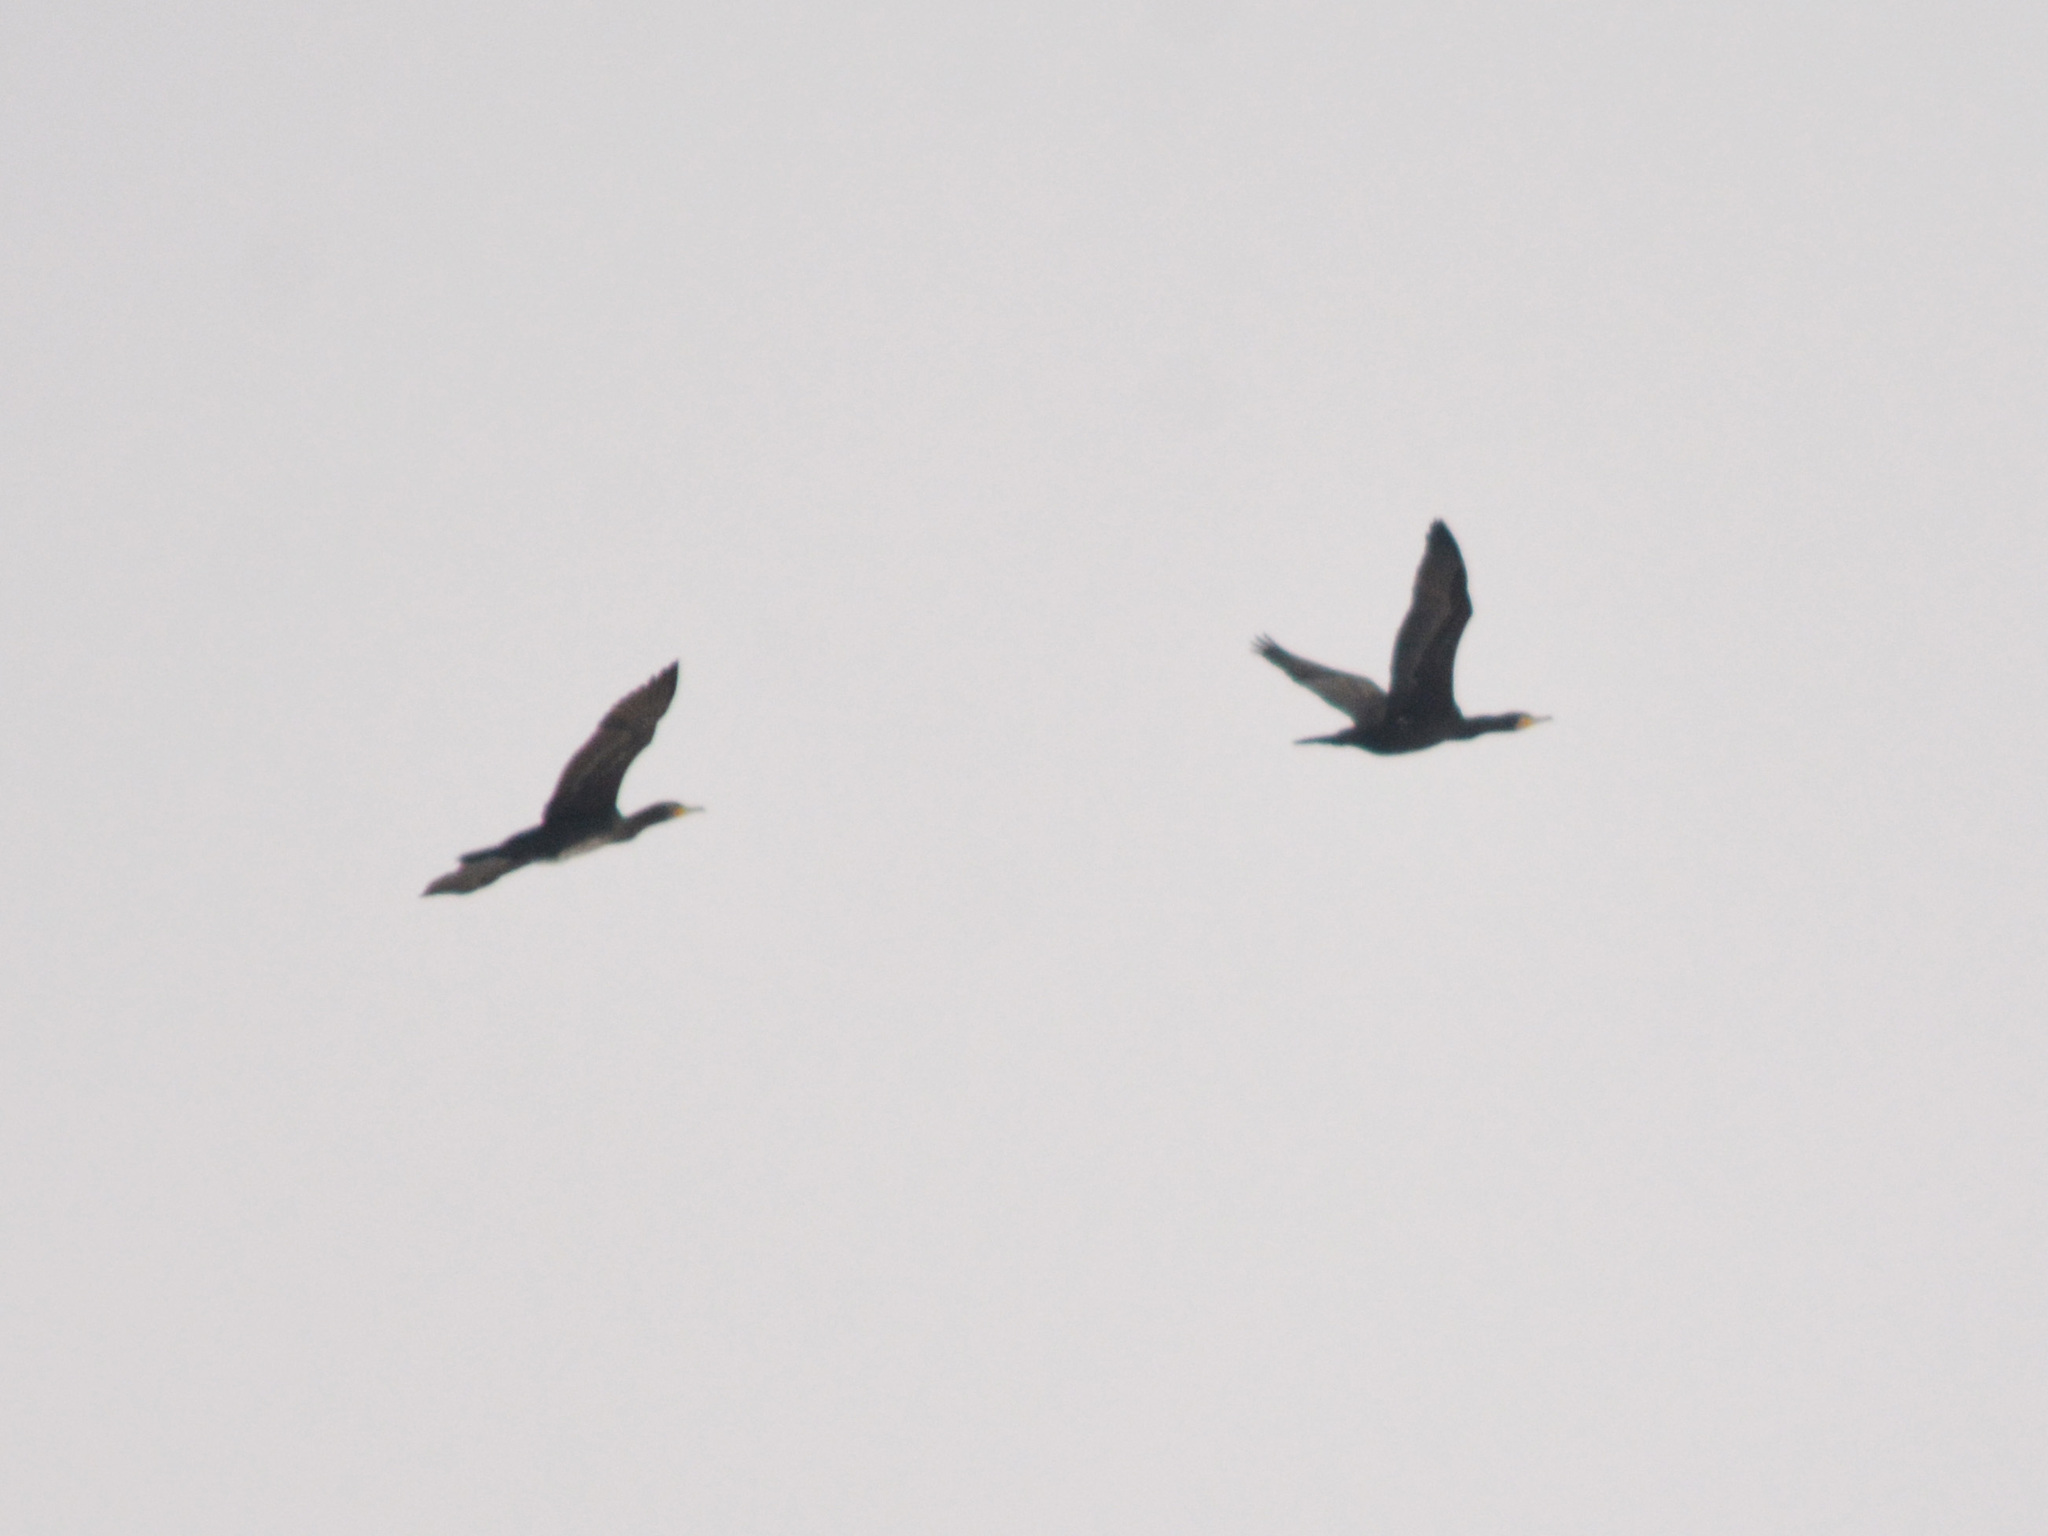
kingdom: Animalia
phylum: Chordata
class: Aves
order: Suliformes
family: Phalacrocoracidae
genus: Phalacrocorax
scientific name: Phalacrocorax carbo
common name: Great cormorant
